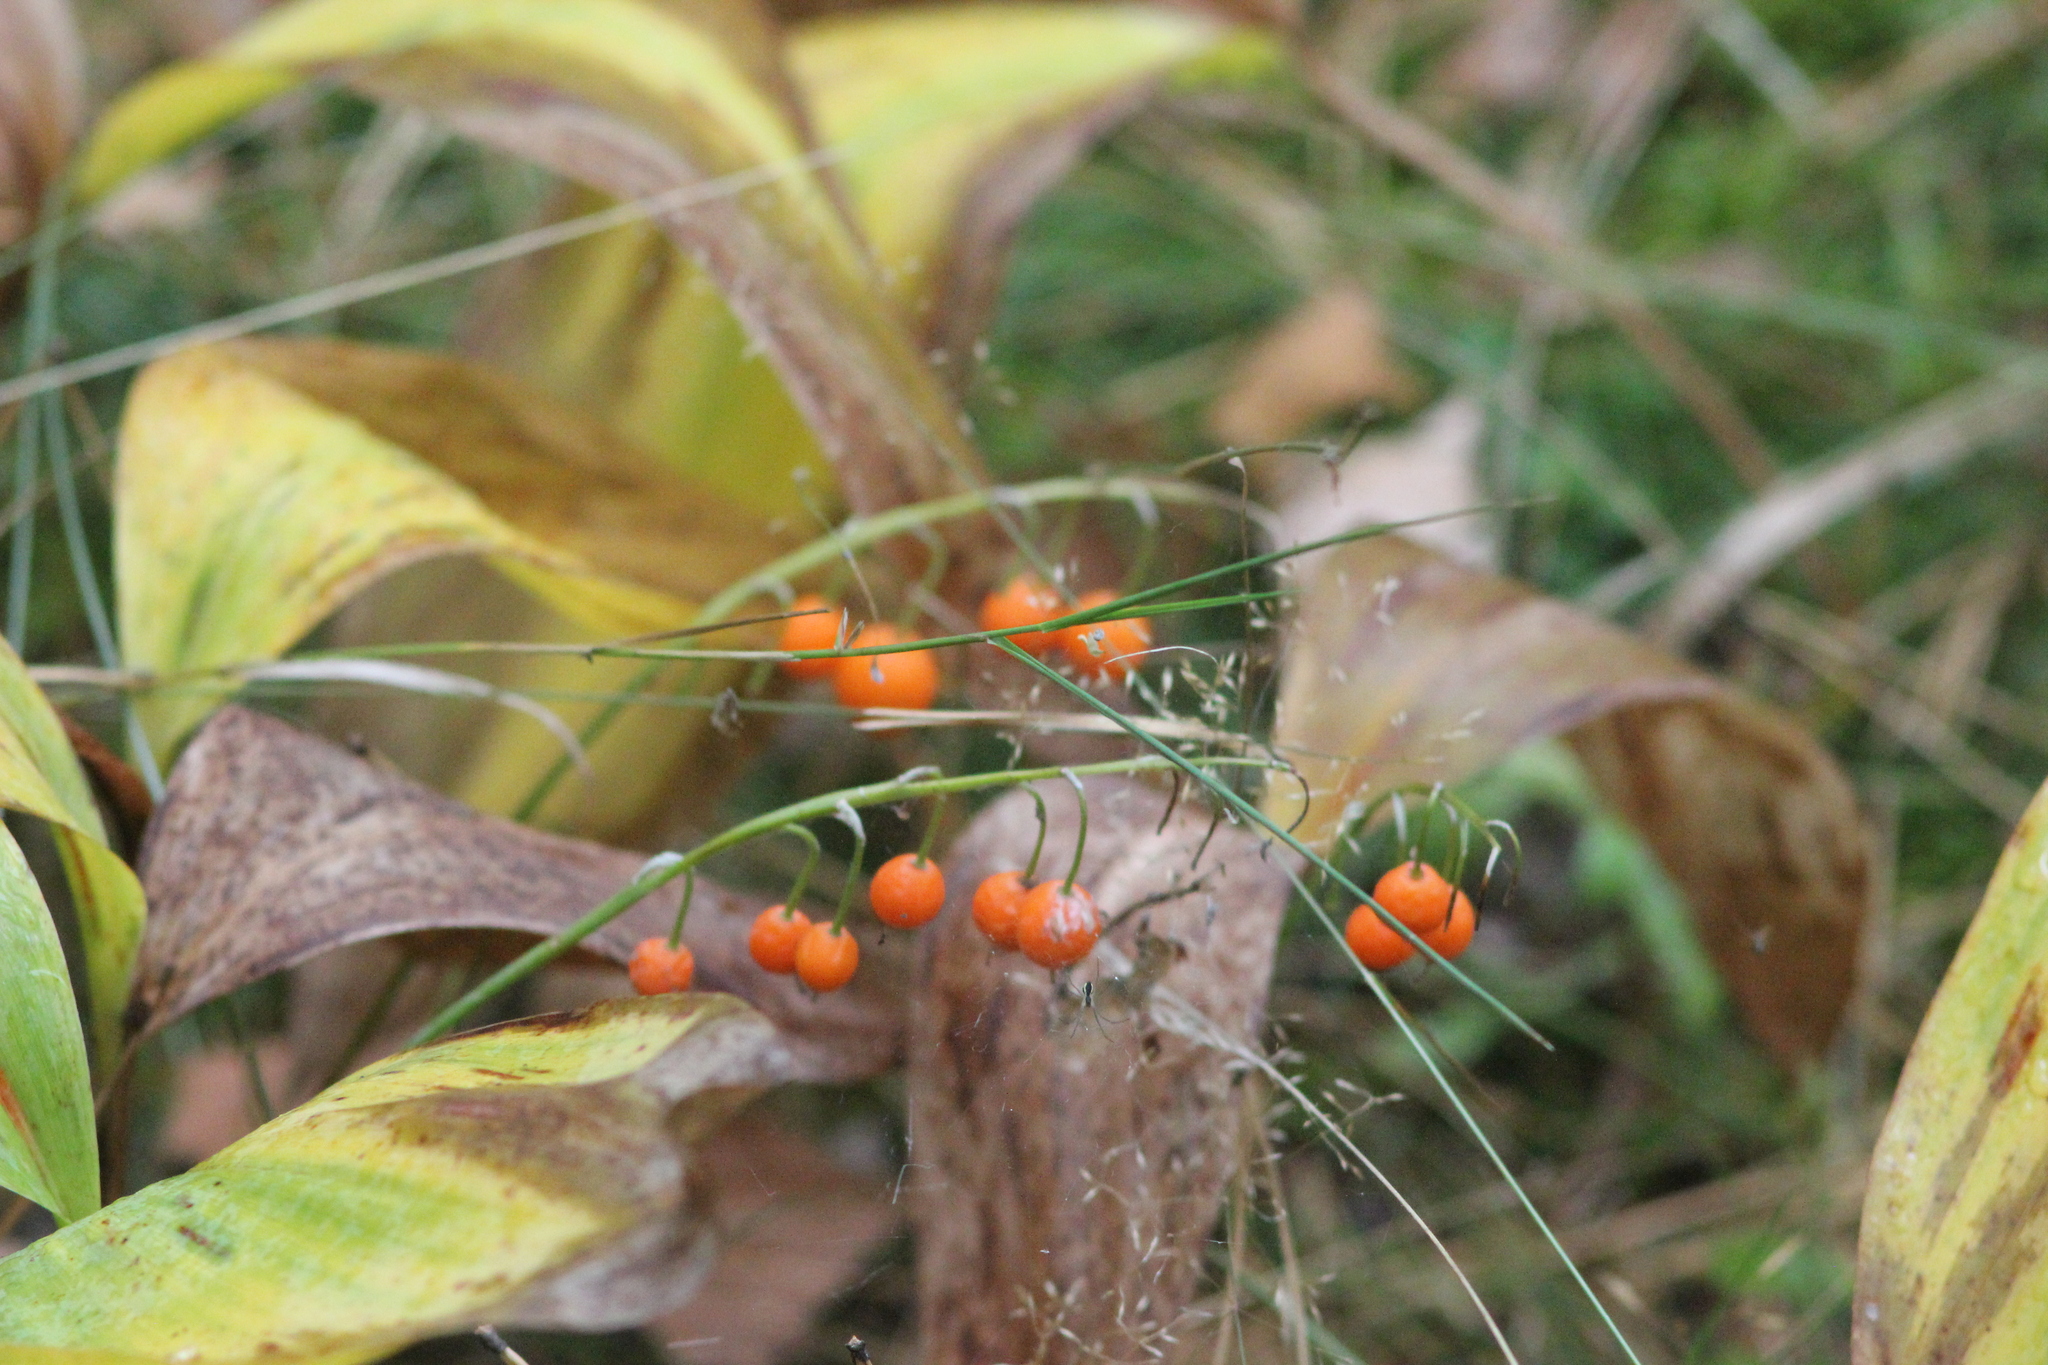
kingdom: Plantae
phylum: Tracheophyta
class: Liliopsida
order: Asparagales
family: Asparagaceae
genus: Convallaria
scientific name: Convallaria majalis
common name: Lily-of-the-valley
